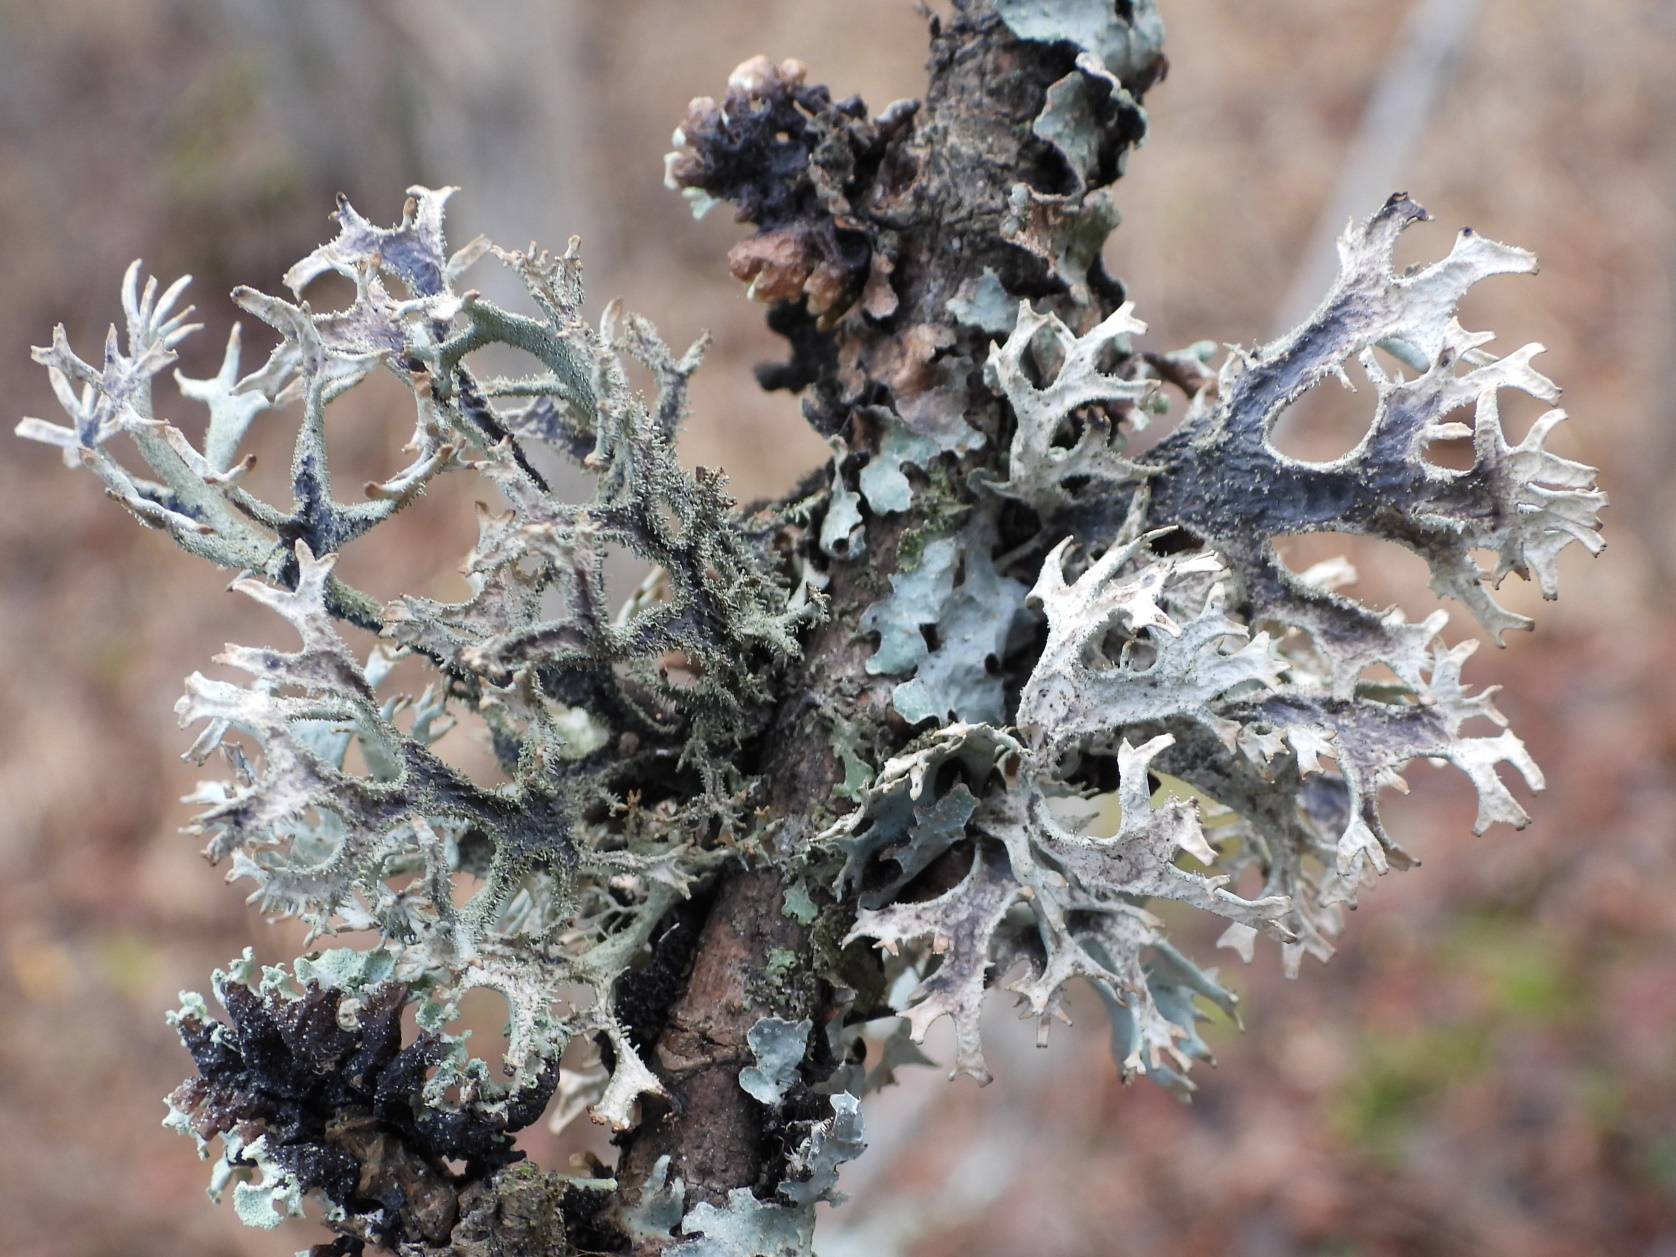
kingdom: Fungi
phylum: Ascomycota
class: Lecanoromycetes
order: Lecanorales
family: Parmeliaceae
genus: Pseudevernia
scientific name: Pseudevernia furfuracea
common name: Tree moss
